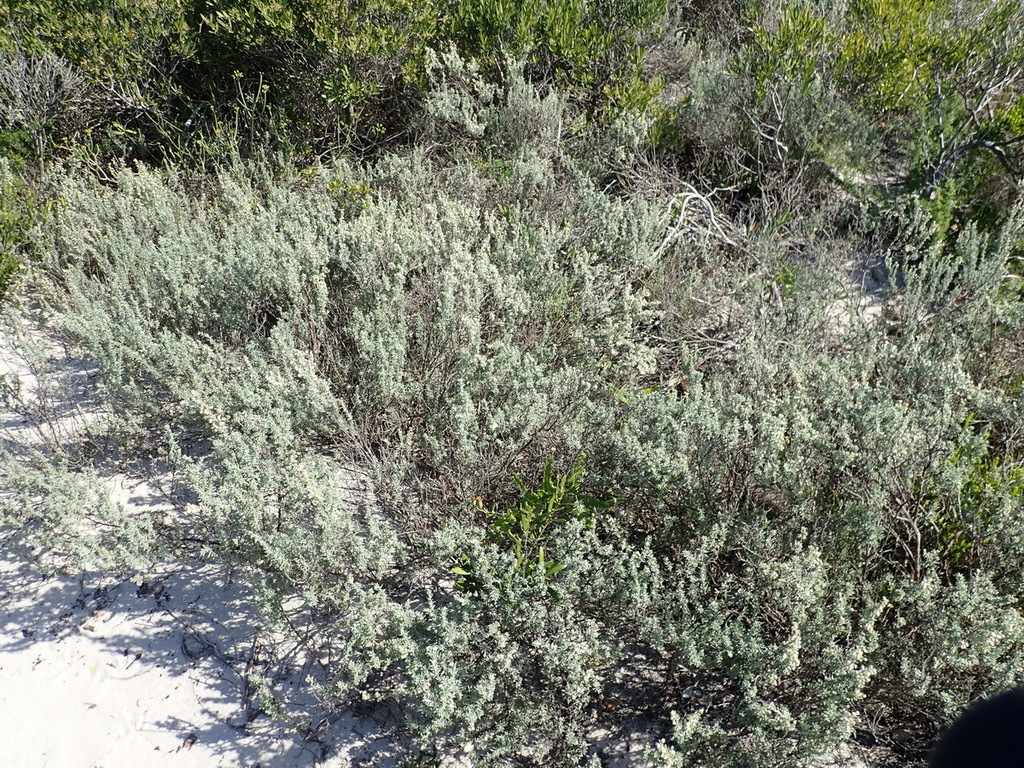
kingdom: Plantae
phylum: Tracheophyta
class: Magnoliopsida
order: Asterales
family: Asteraceae
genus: Eriocephalus
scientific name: Eriocephalus racemosus
